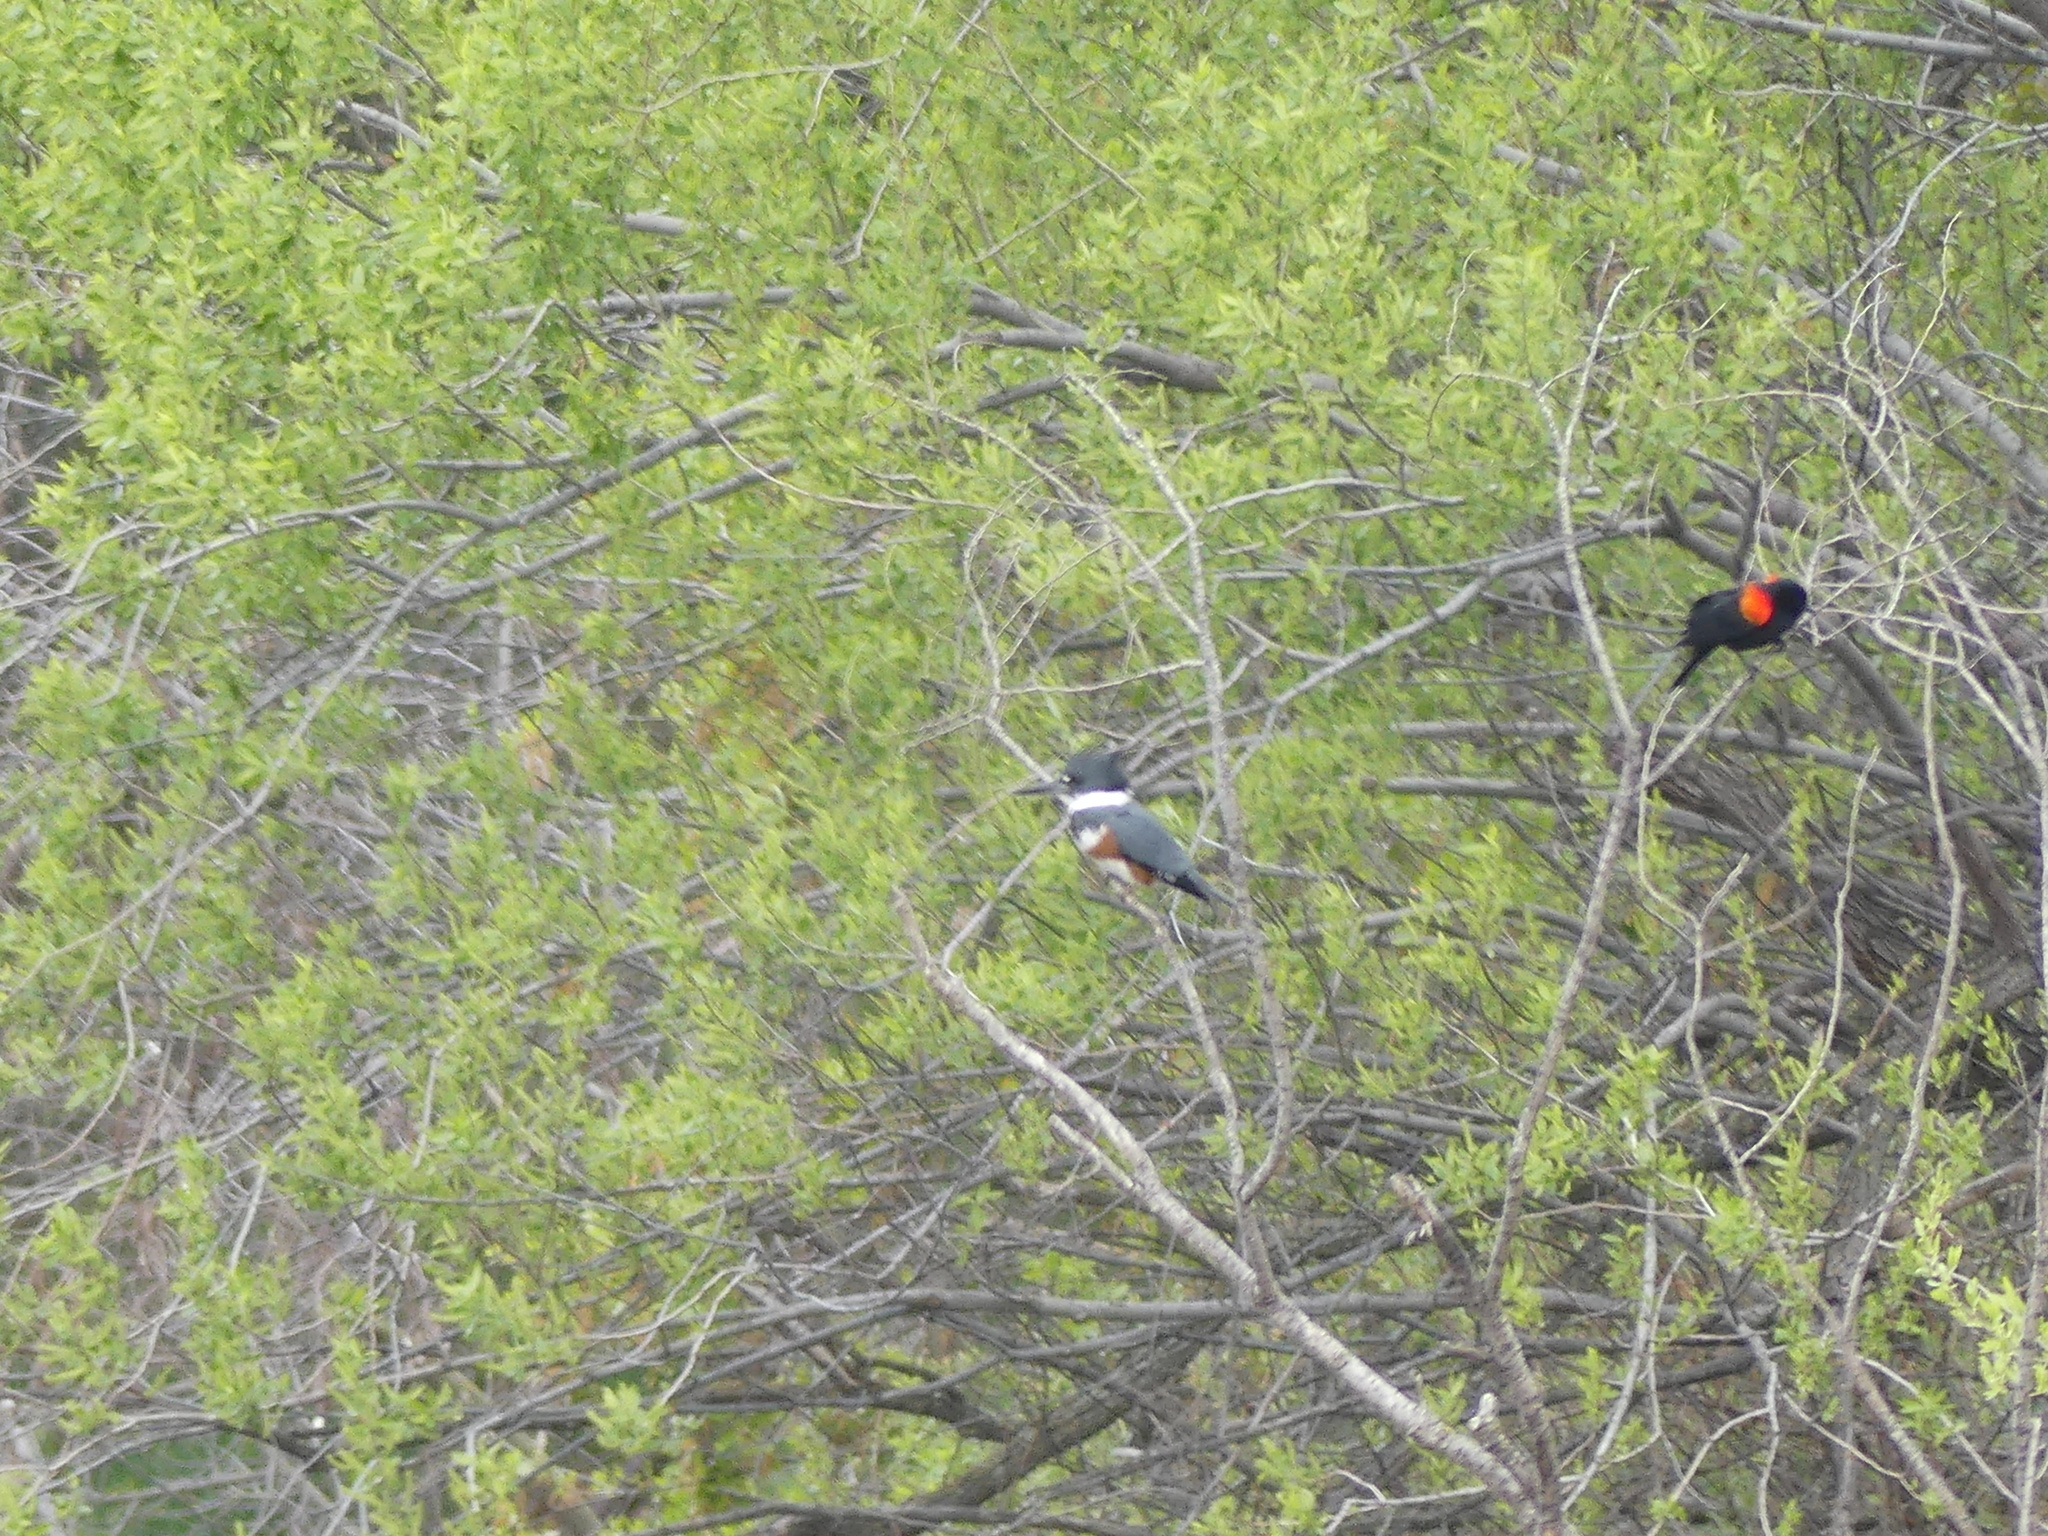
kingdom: Animalia
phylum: Chordata
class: Aves
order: Coraciiformes
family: Alcedinidae
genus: Megaceryle
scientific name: Megaceryle alcyon
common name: Belted kingfisher
